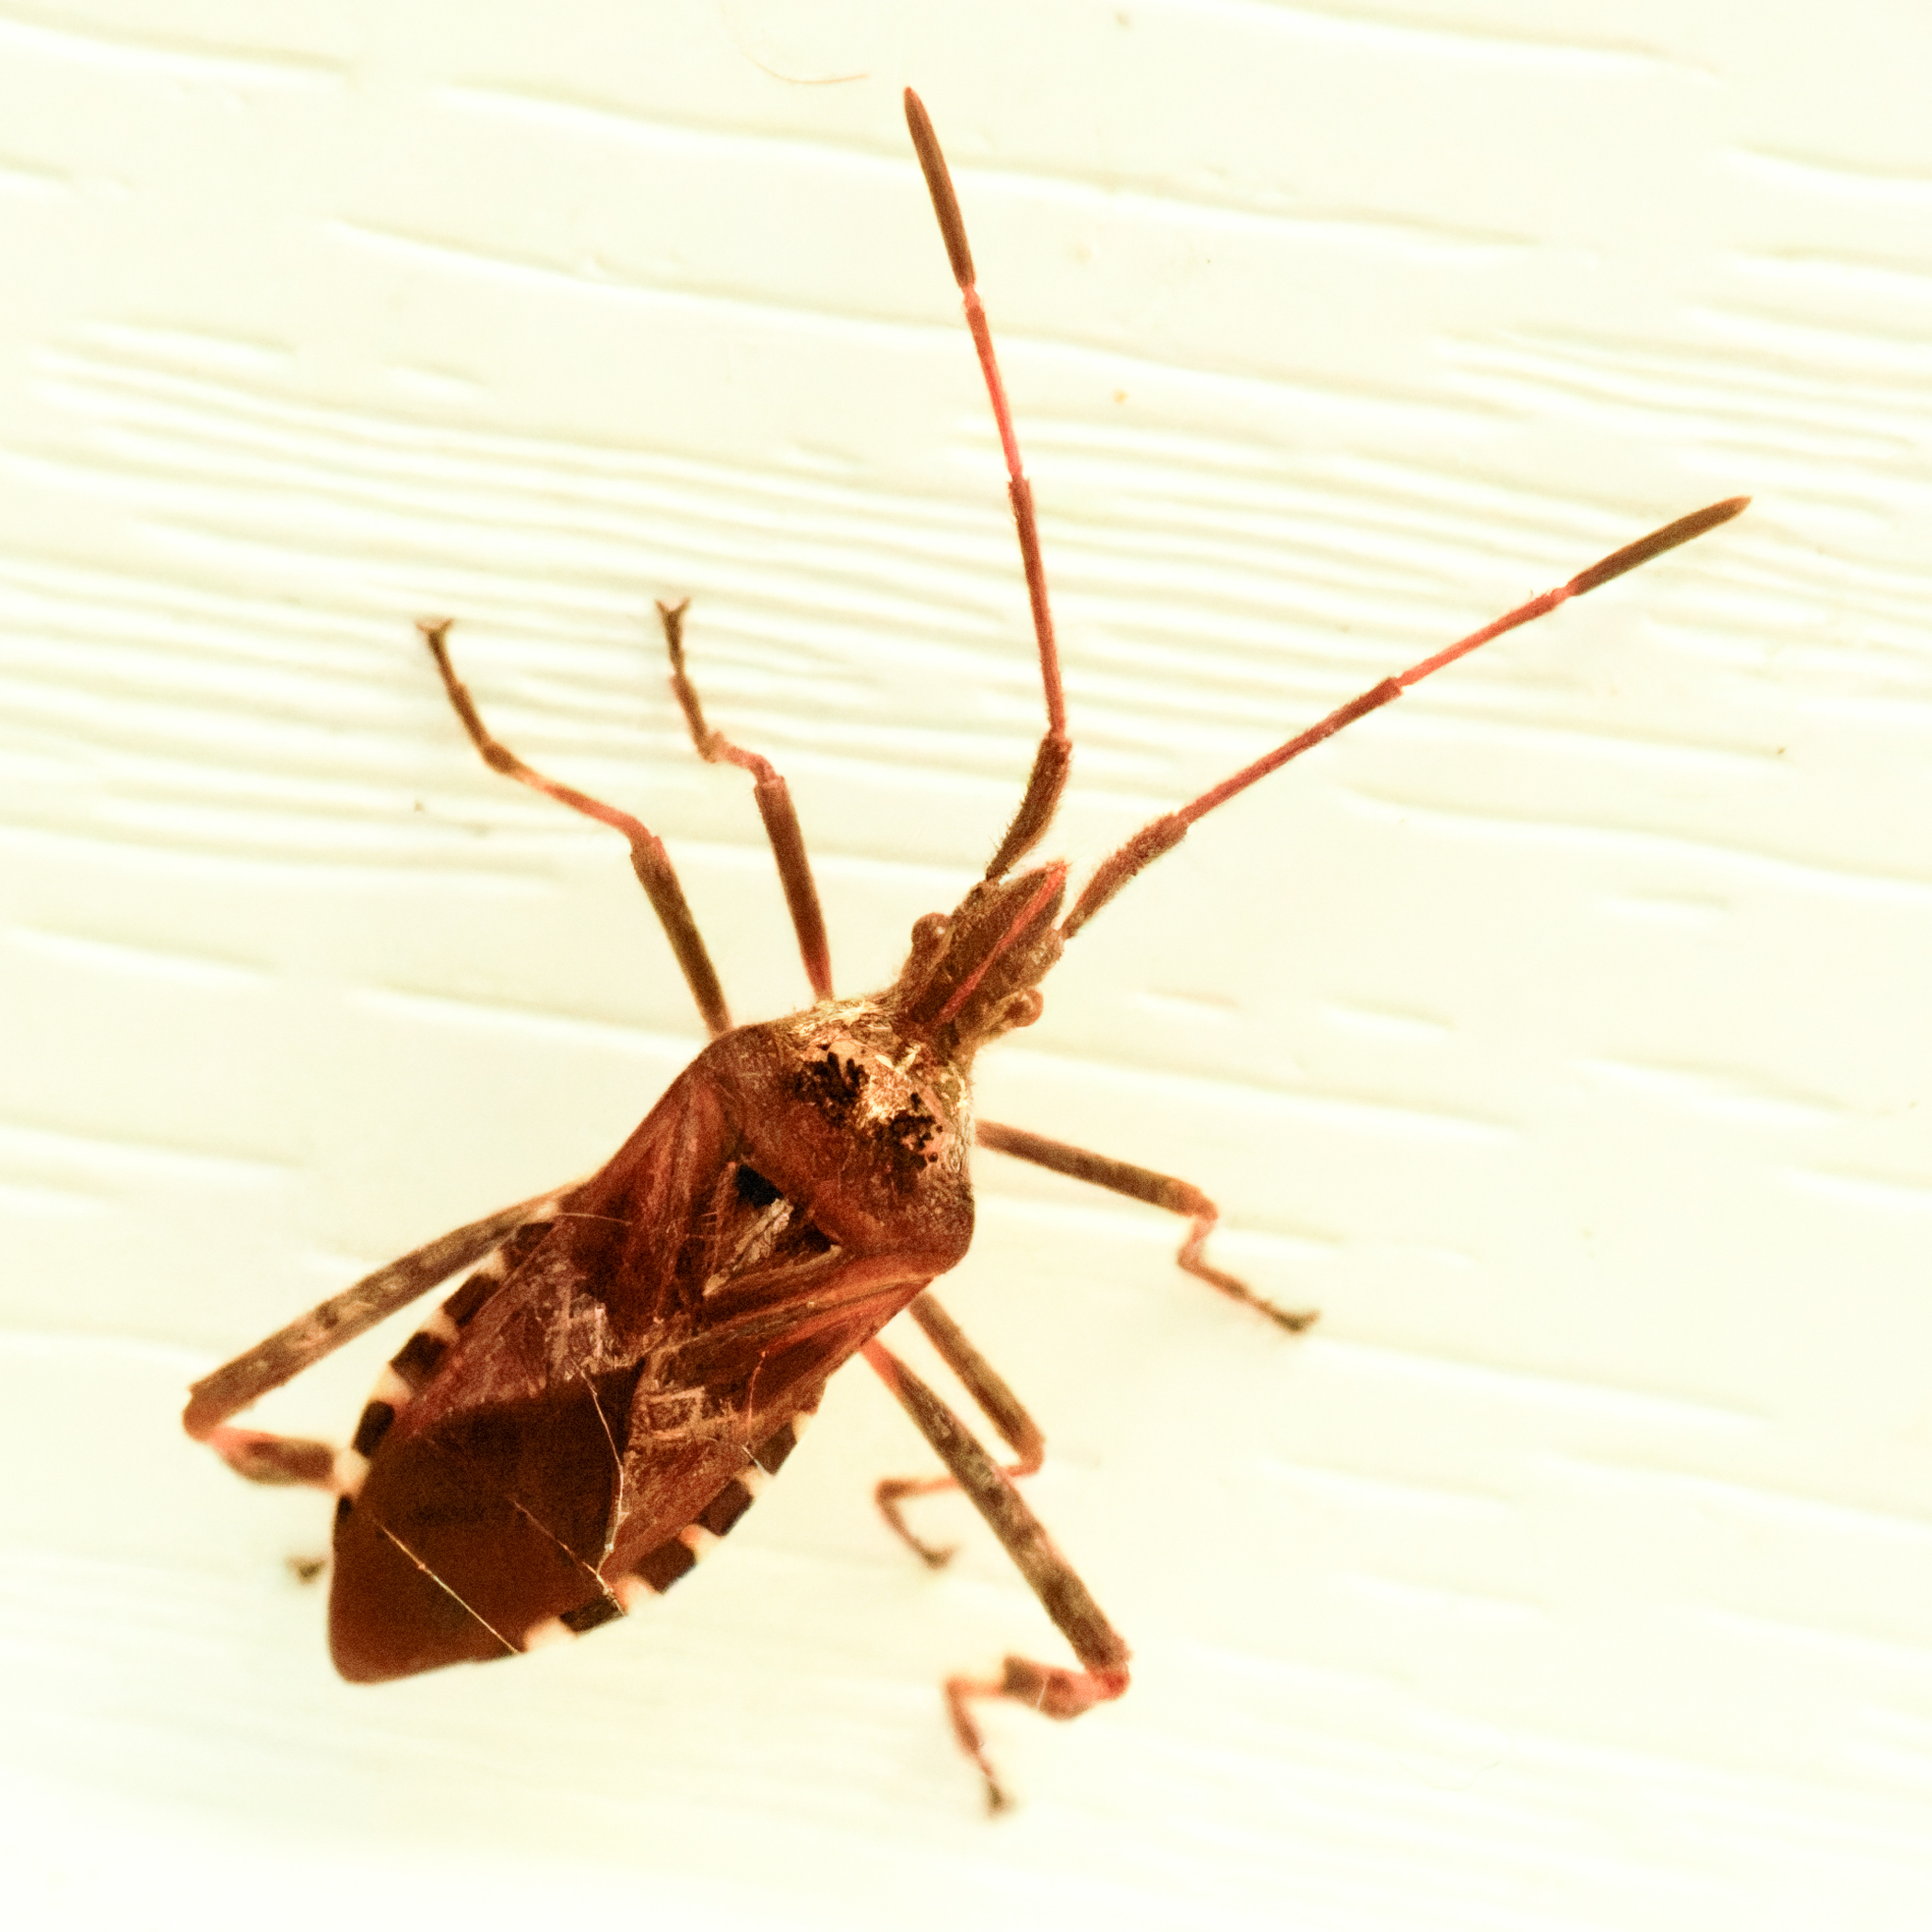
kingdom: Animalia
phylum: Arthropoda
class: Insecta
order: Hemiptera
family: Coreidae
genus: Leptoglossus
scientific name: Leptoglossus occidentalis
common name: Western conifer-seed bug
